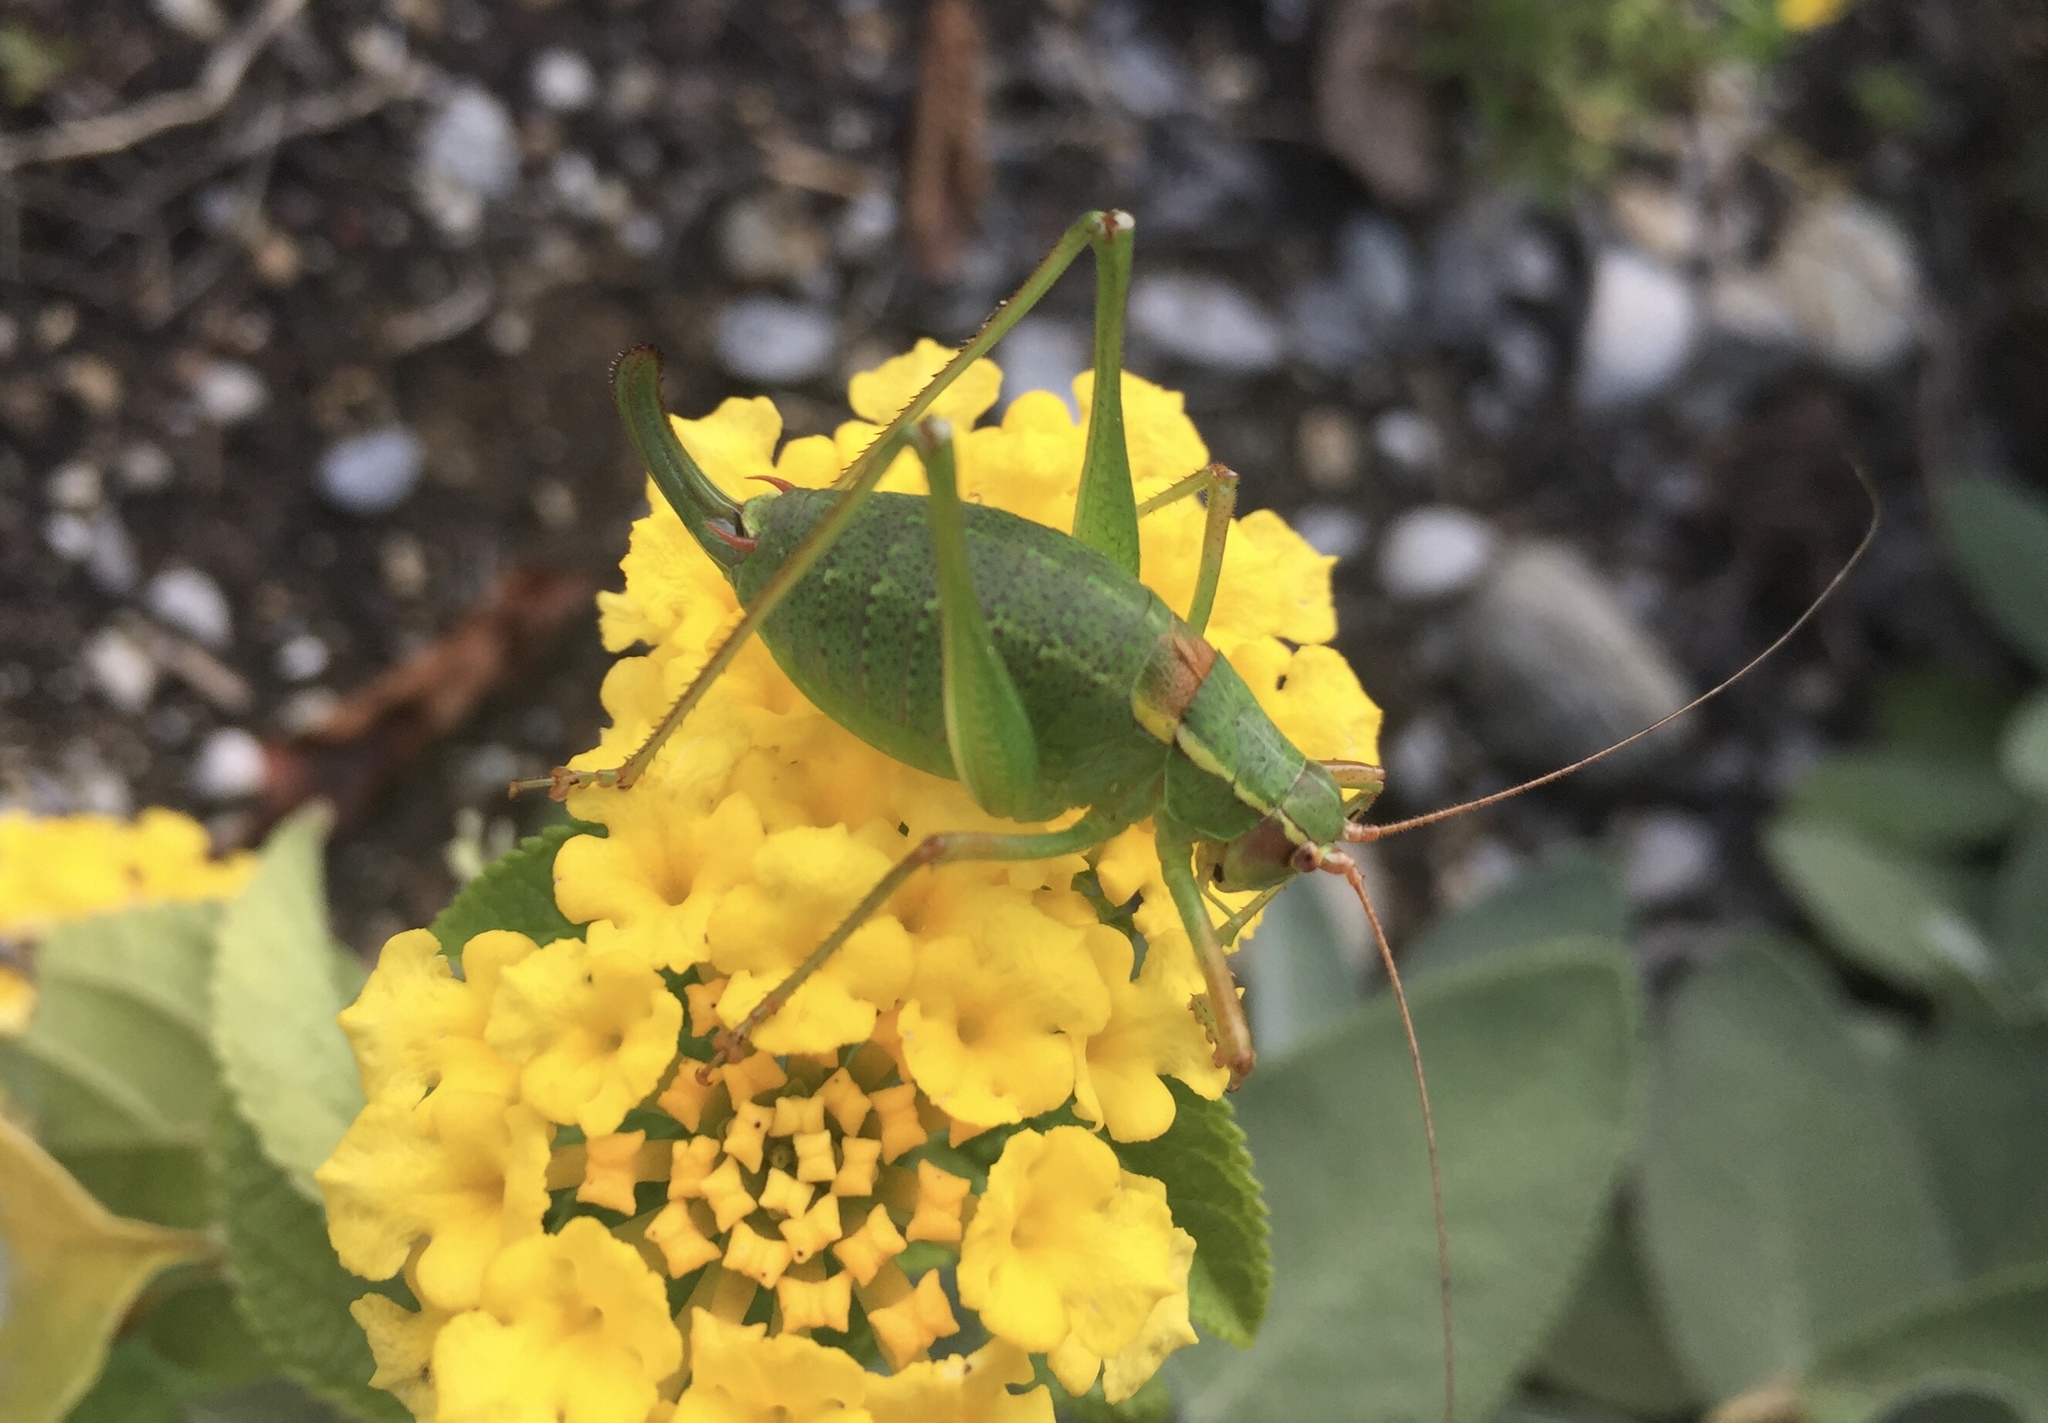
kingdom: Animalia
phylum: Arthropoda
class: Insecta
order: Orthoptera
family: Tettigoniidae
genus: Barbitistes
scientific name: Barbitistes serricauda
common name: Saw-tailed bush-cricket
